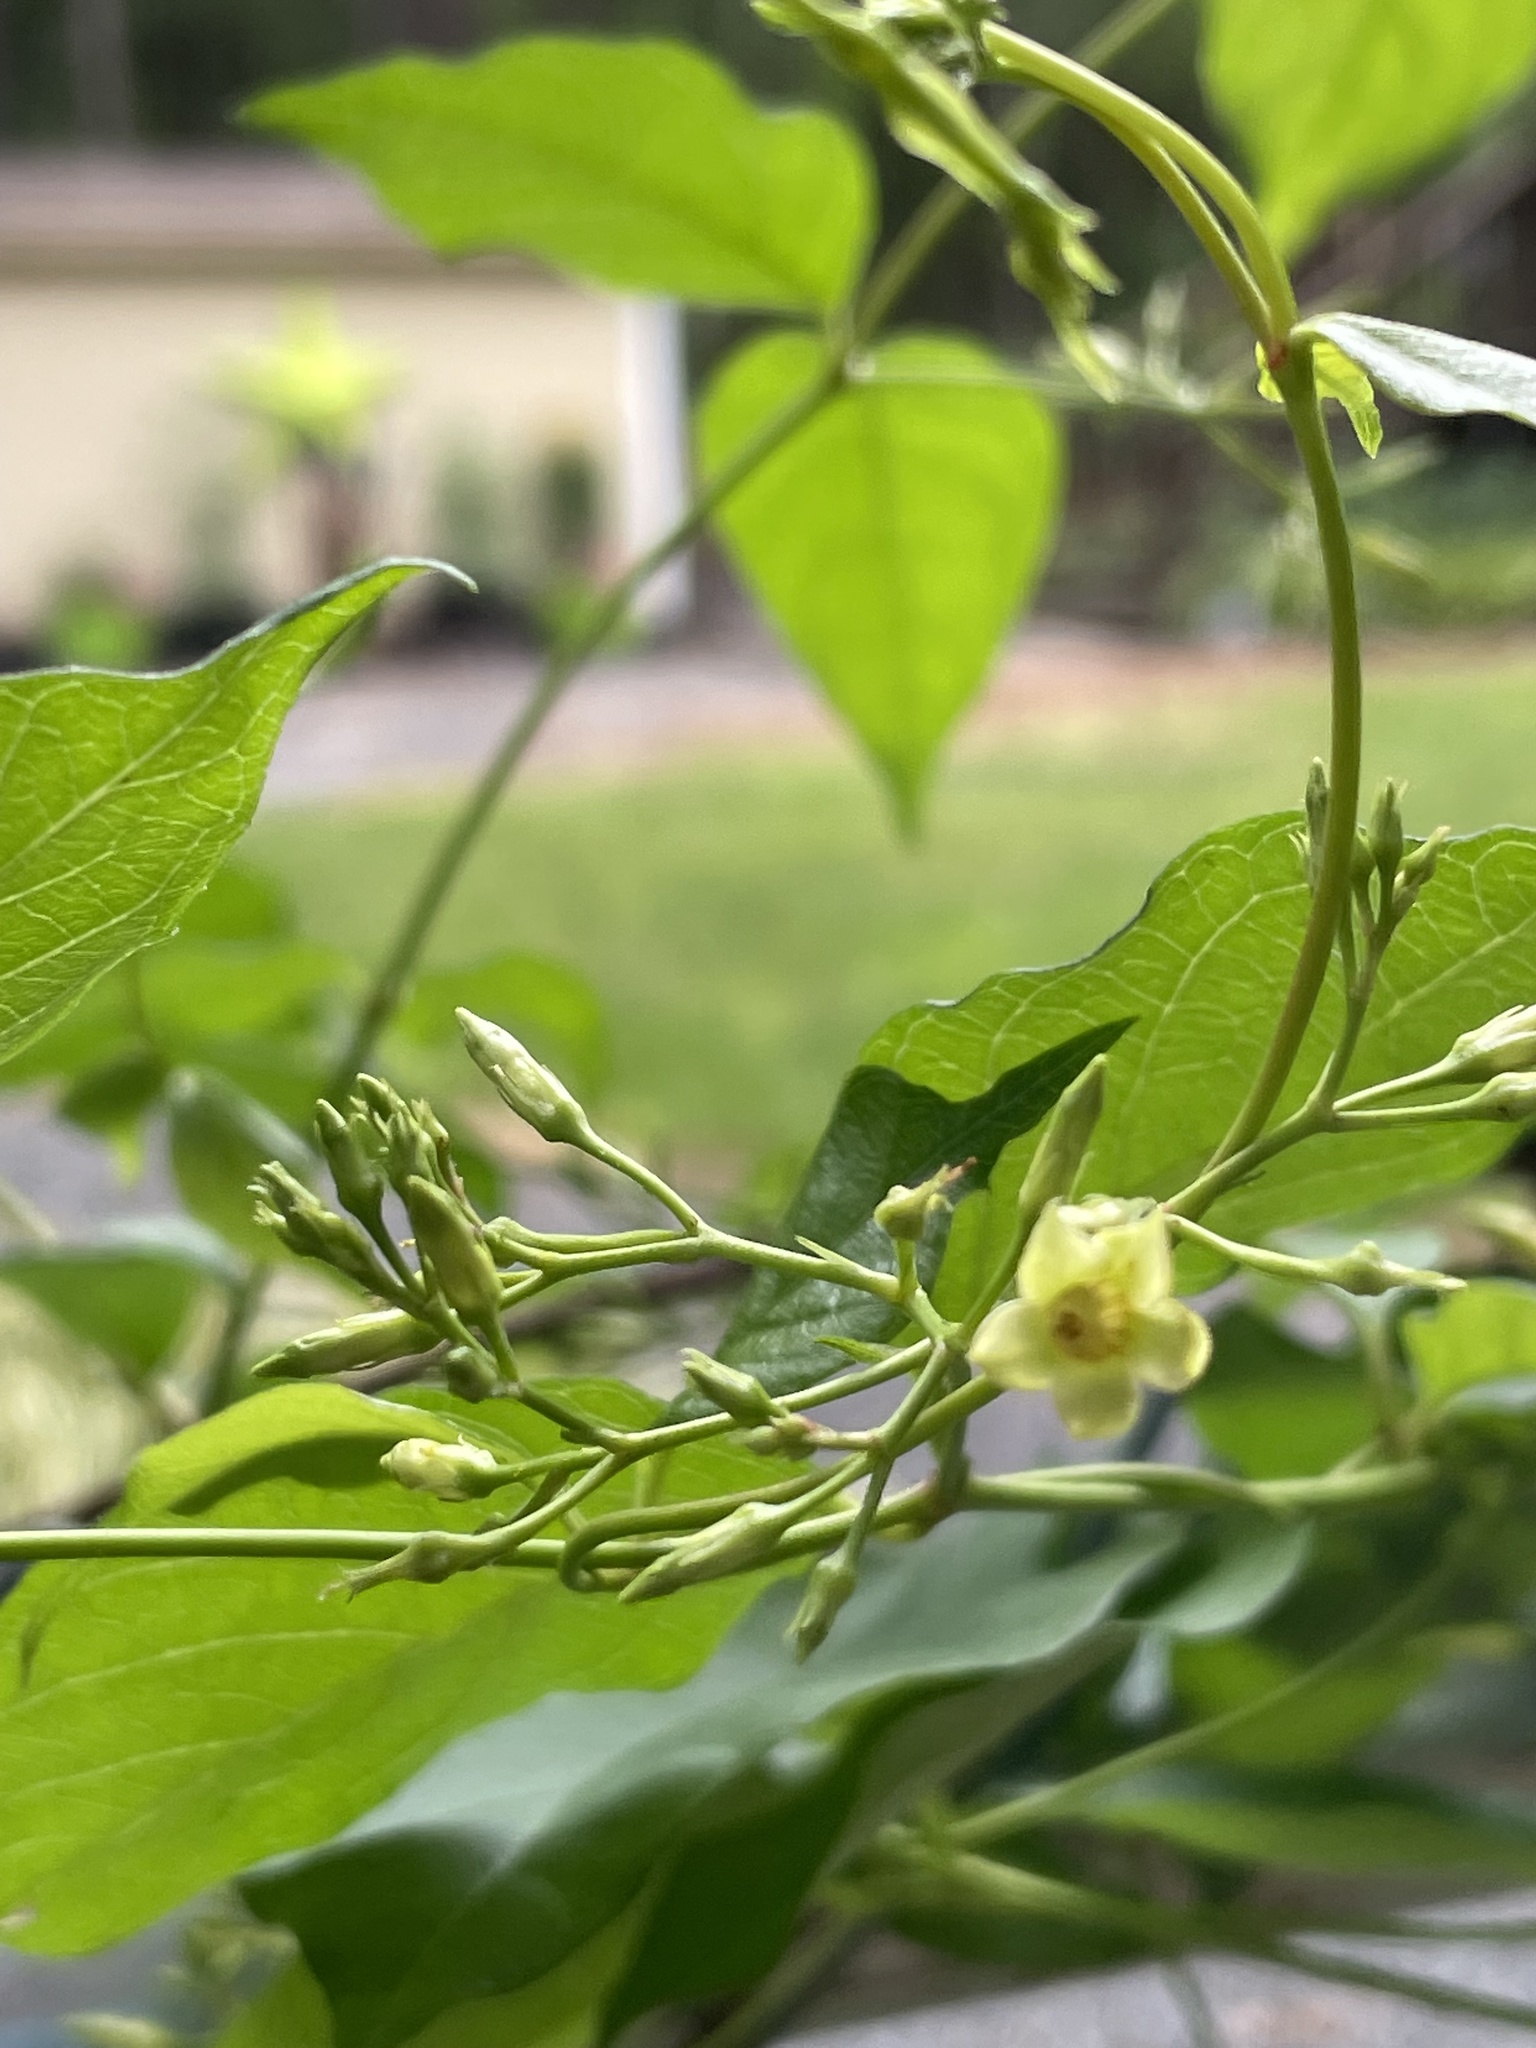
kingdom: Plantae
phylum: Tracheophyta
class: Magnoliopsida
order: Gentianales
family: Apocynaceae
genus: Thyrsanthella
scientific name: Thyrsanthella difformis
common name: Climbing dogbane
